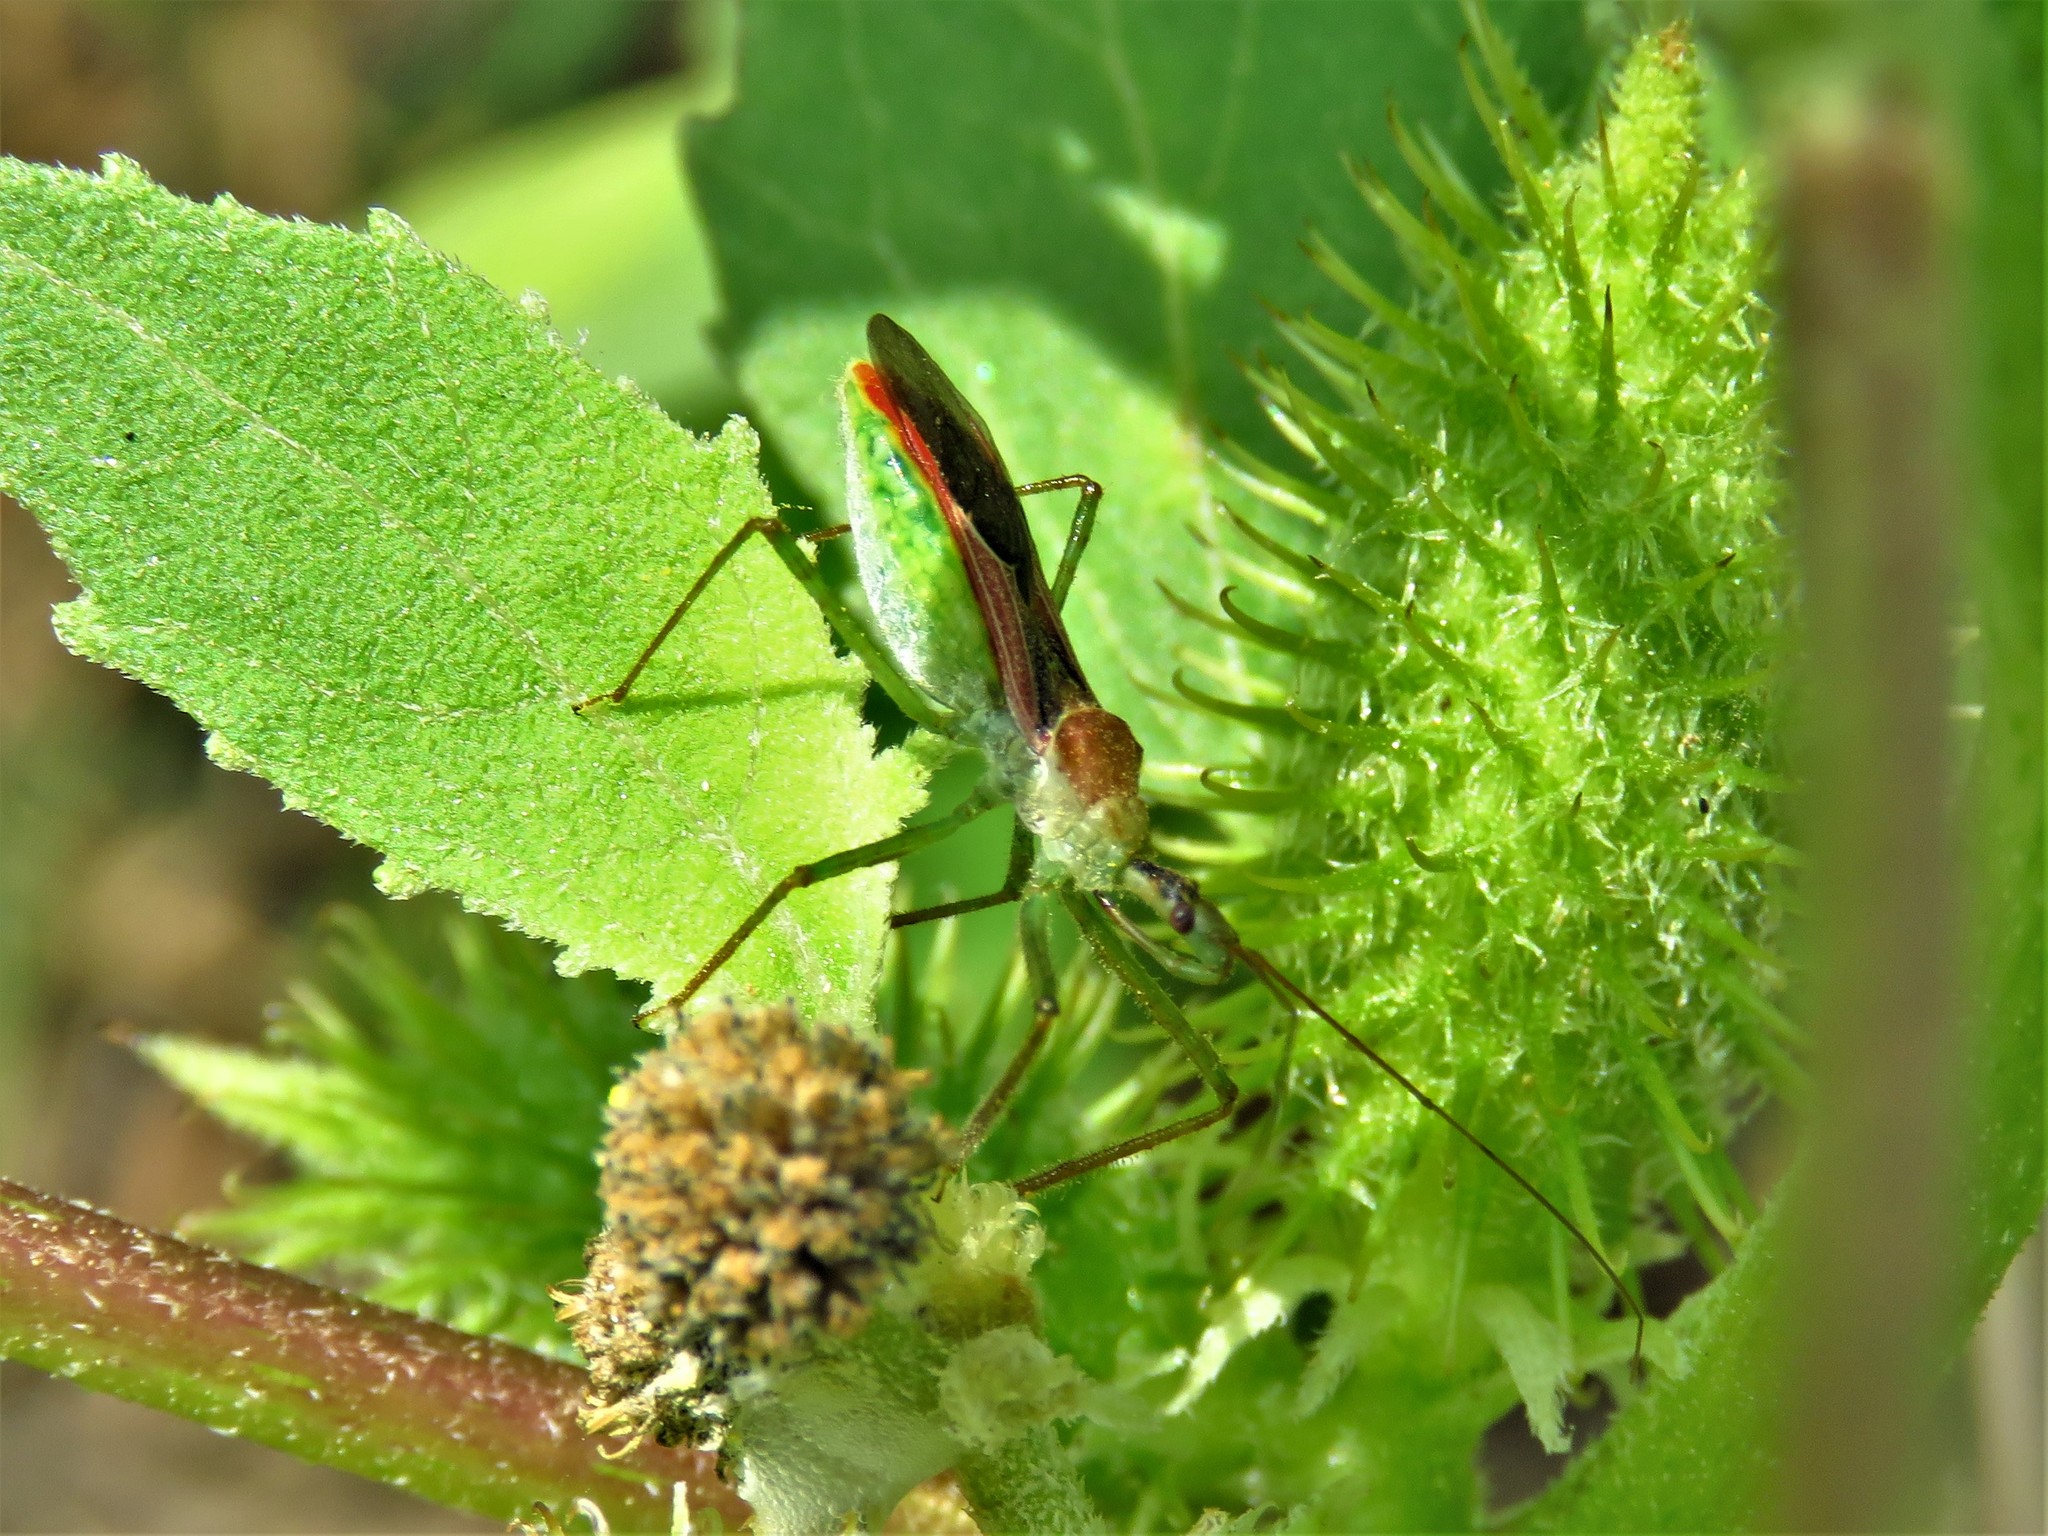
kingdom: Animalia
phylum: Arthropoda
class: Insecta
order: Hemiptera
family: Reduviidae
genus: Zelus
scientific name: Zelus renardii
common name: Assassin bug
